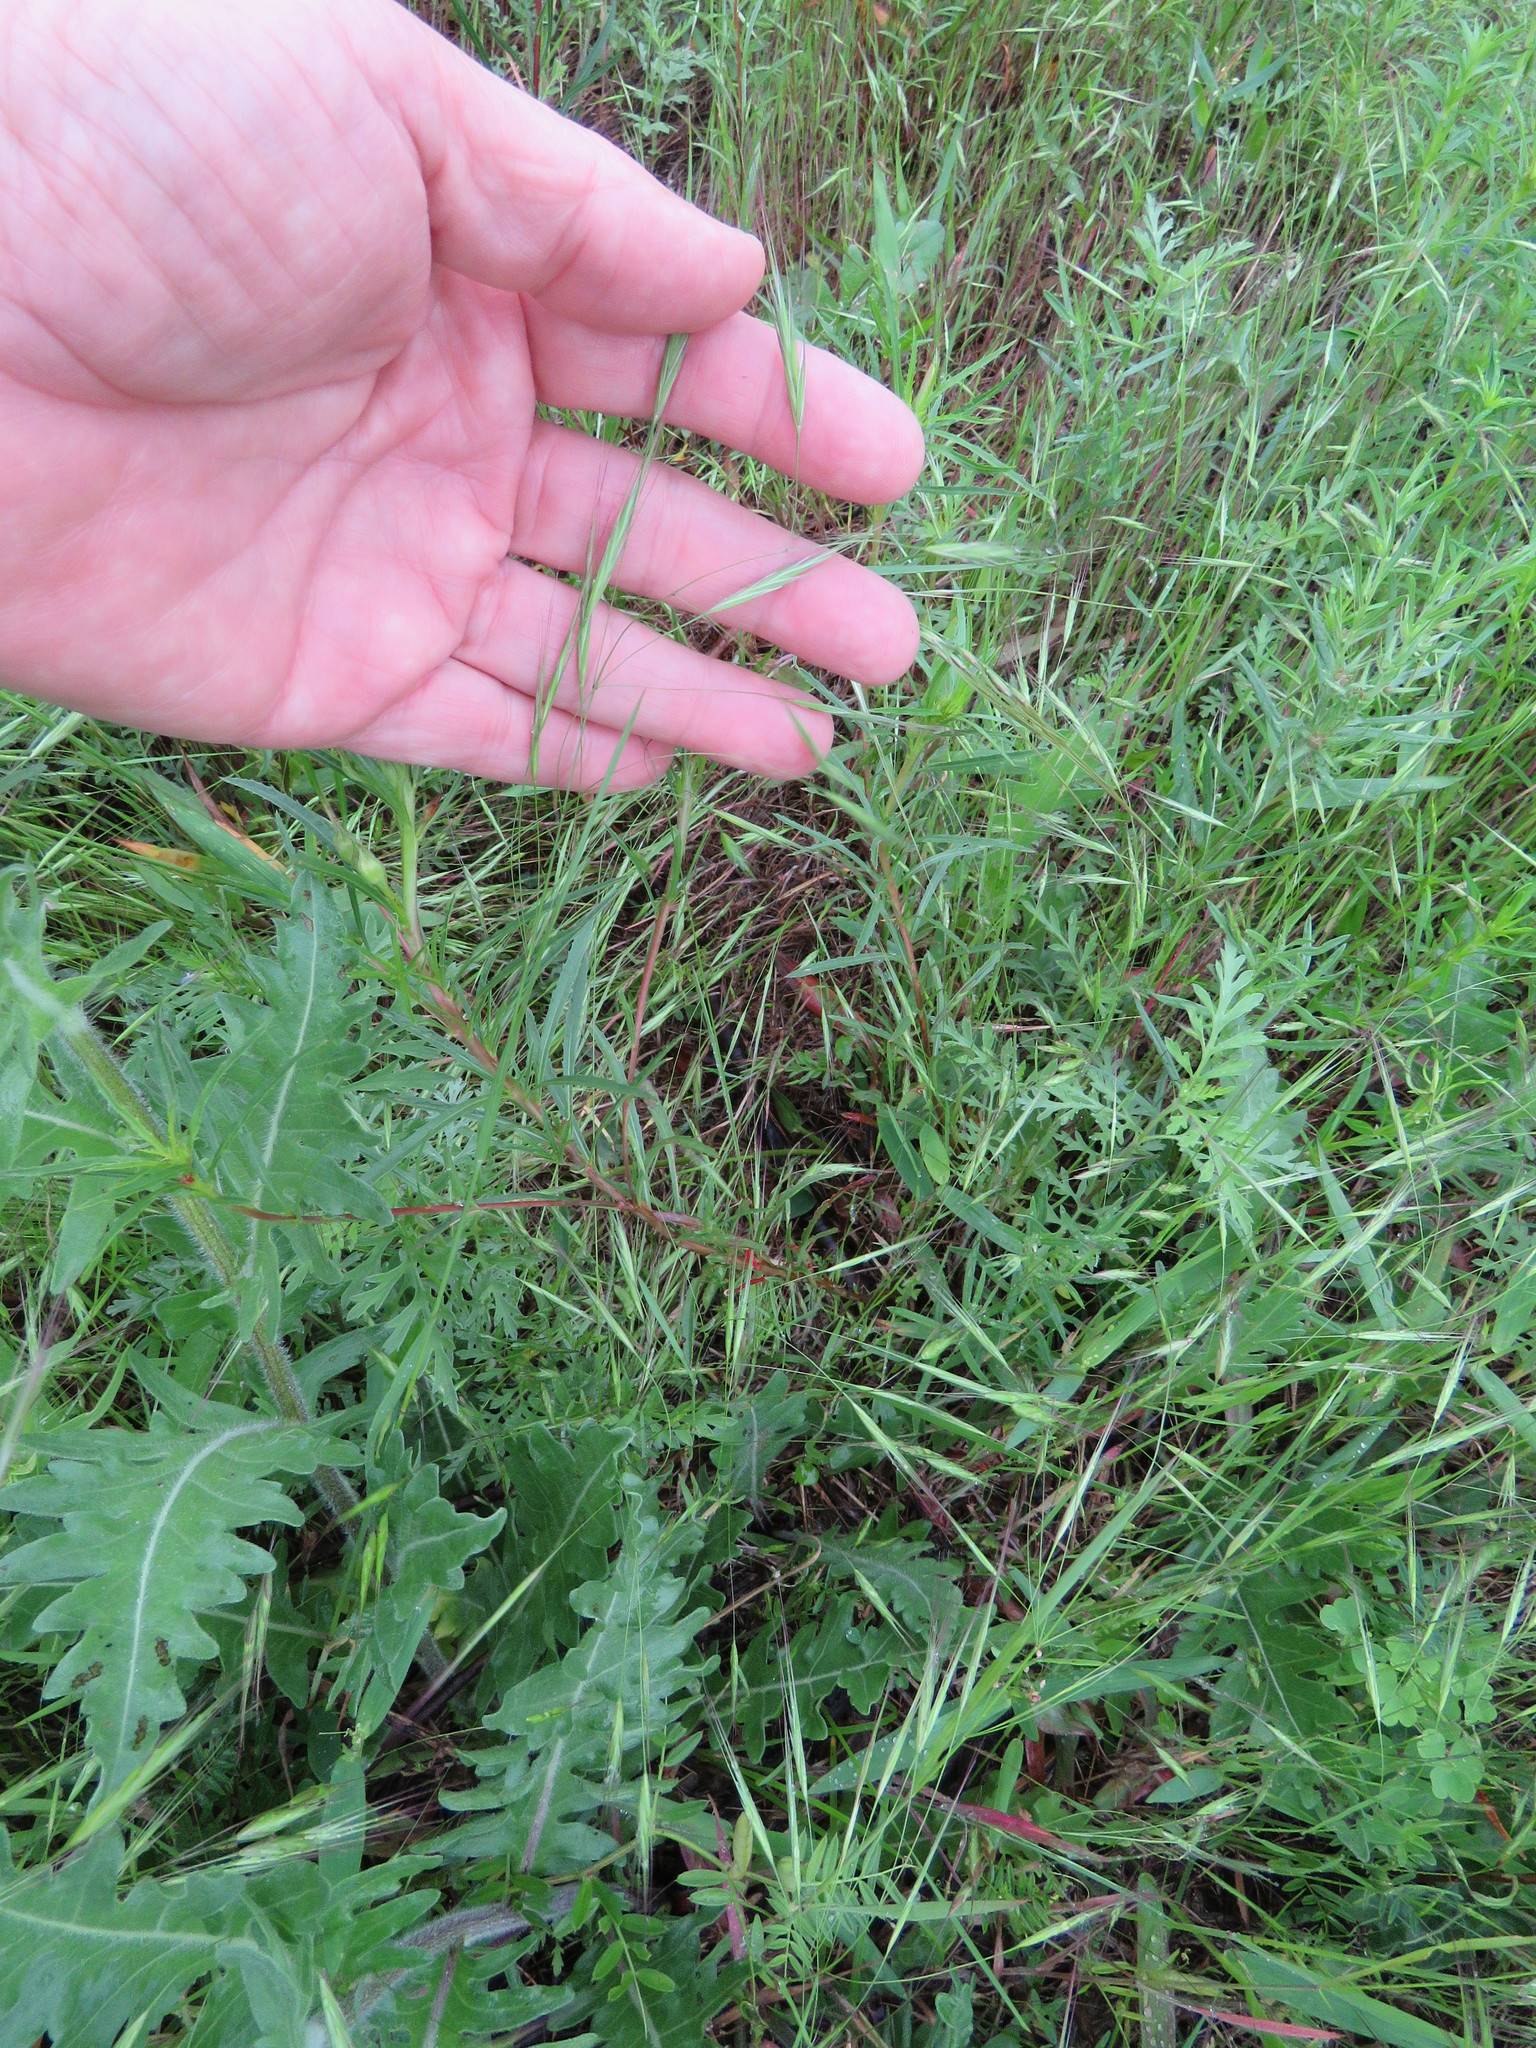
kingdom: Plantae
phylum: Tracheophyta
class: Liliopsida
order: Poales
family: Poaceae
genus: Bromus
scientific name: Bromus diandrus
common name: Ripgut brome
